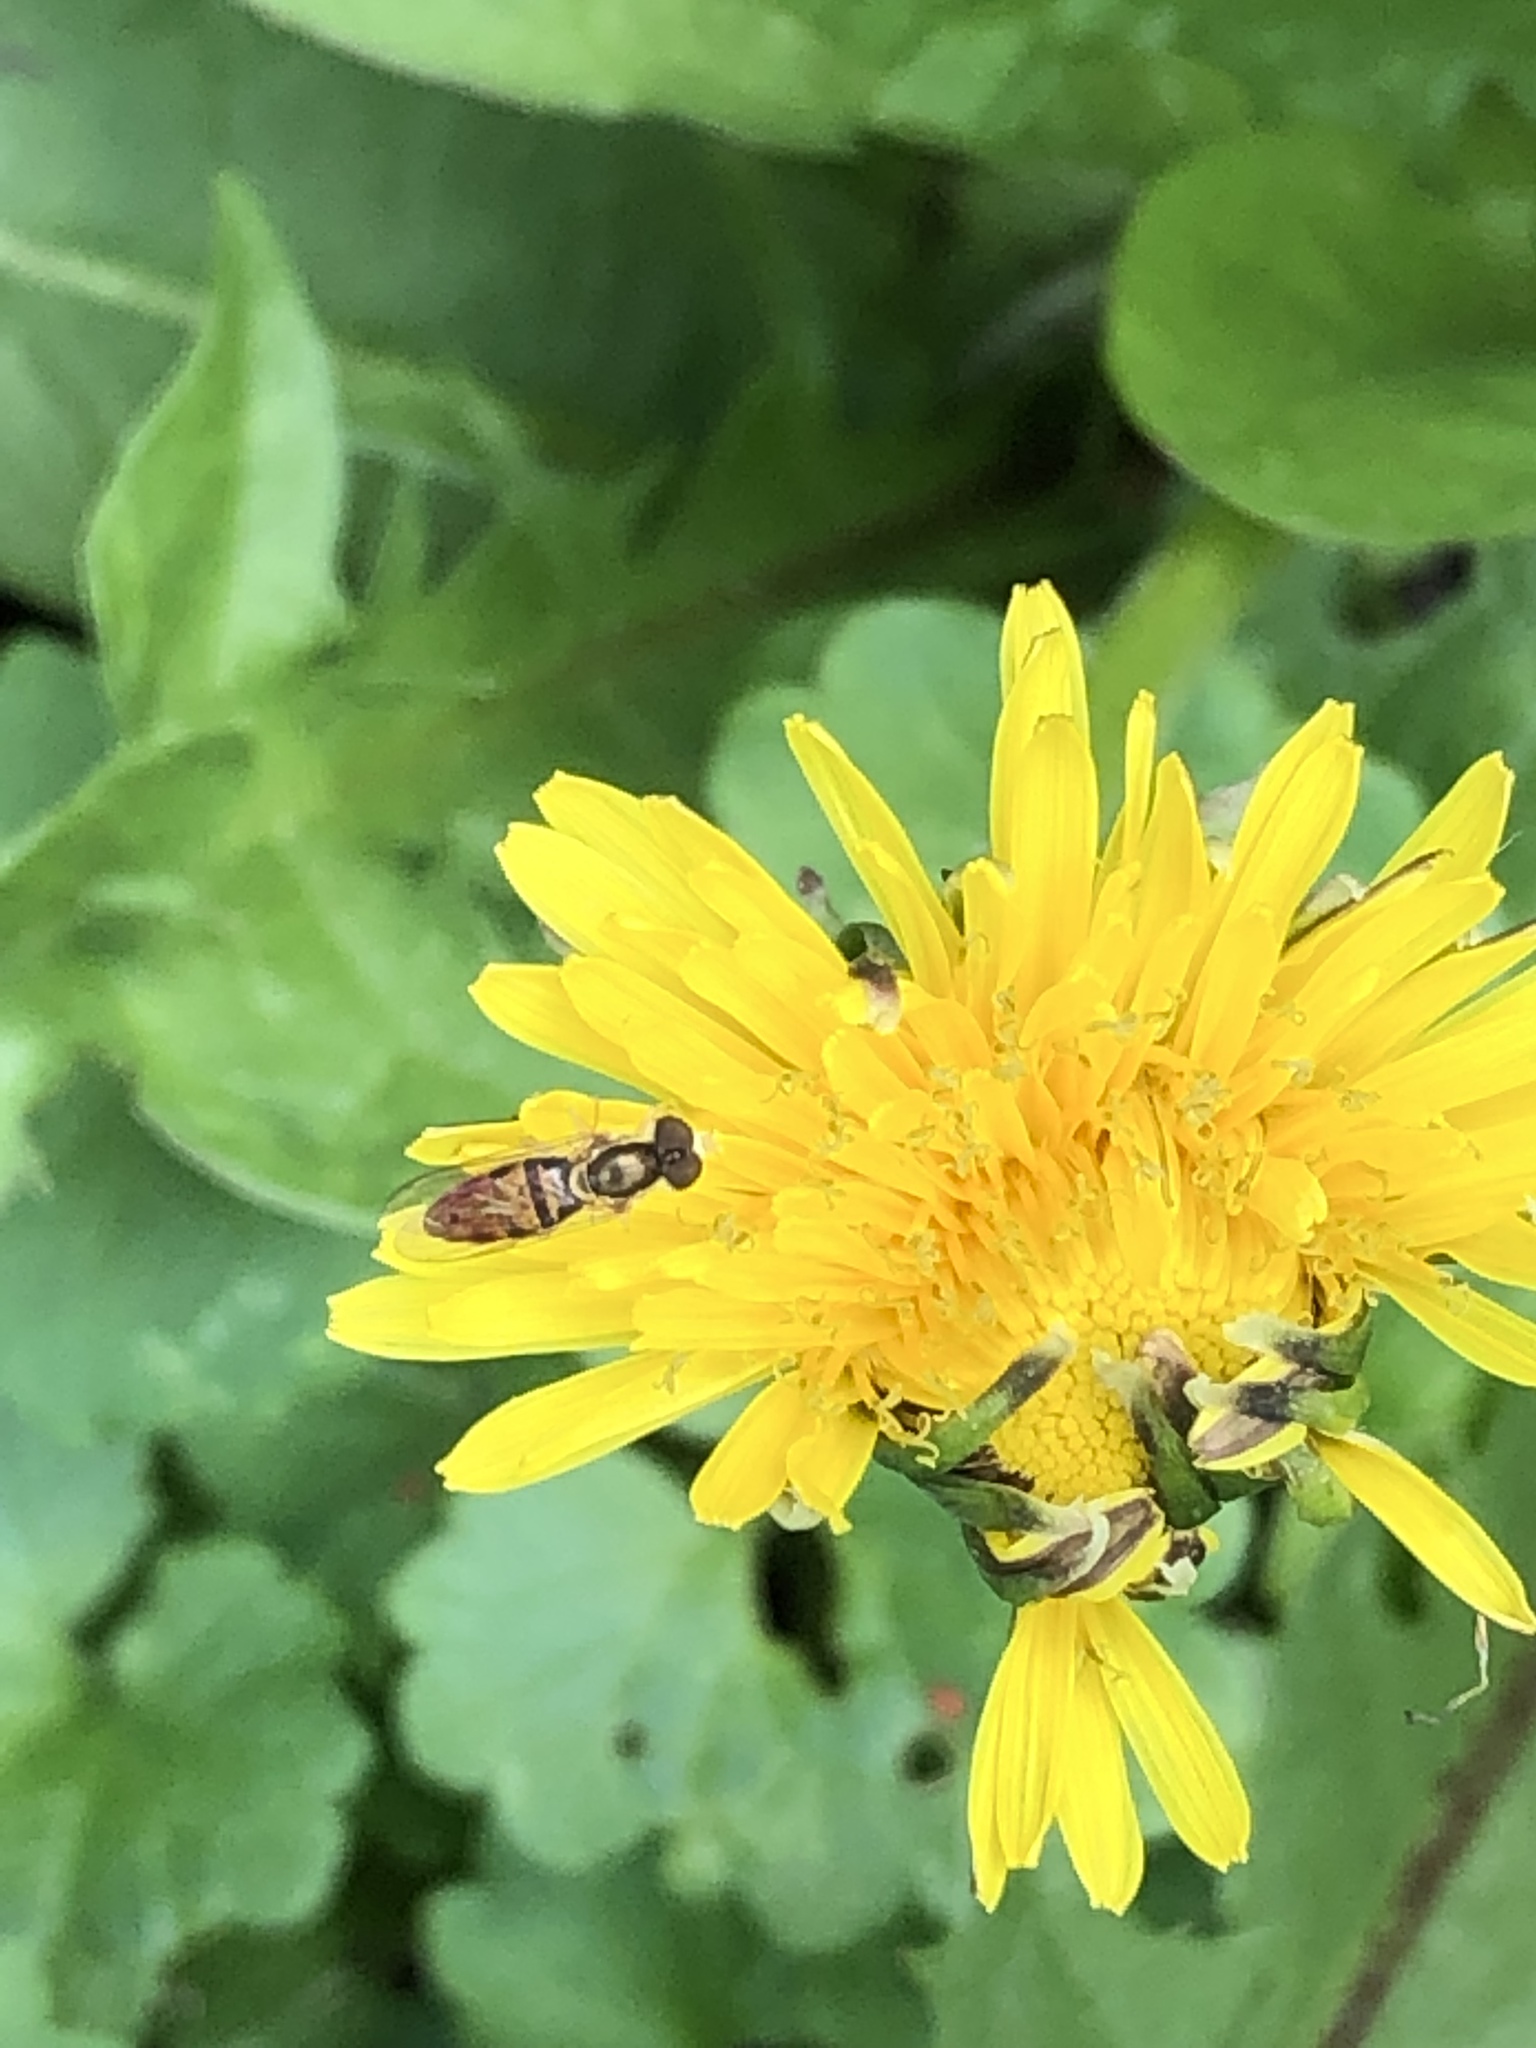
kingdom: Animalia
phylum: Arthropoda
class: Insecta
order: Diptera
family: Syrphidae
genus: Toxomerus
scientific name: Toxomerus marginatus
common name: Syrphid fly
